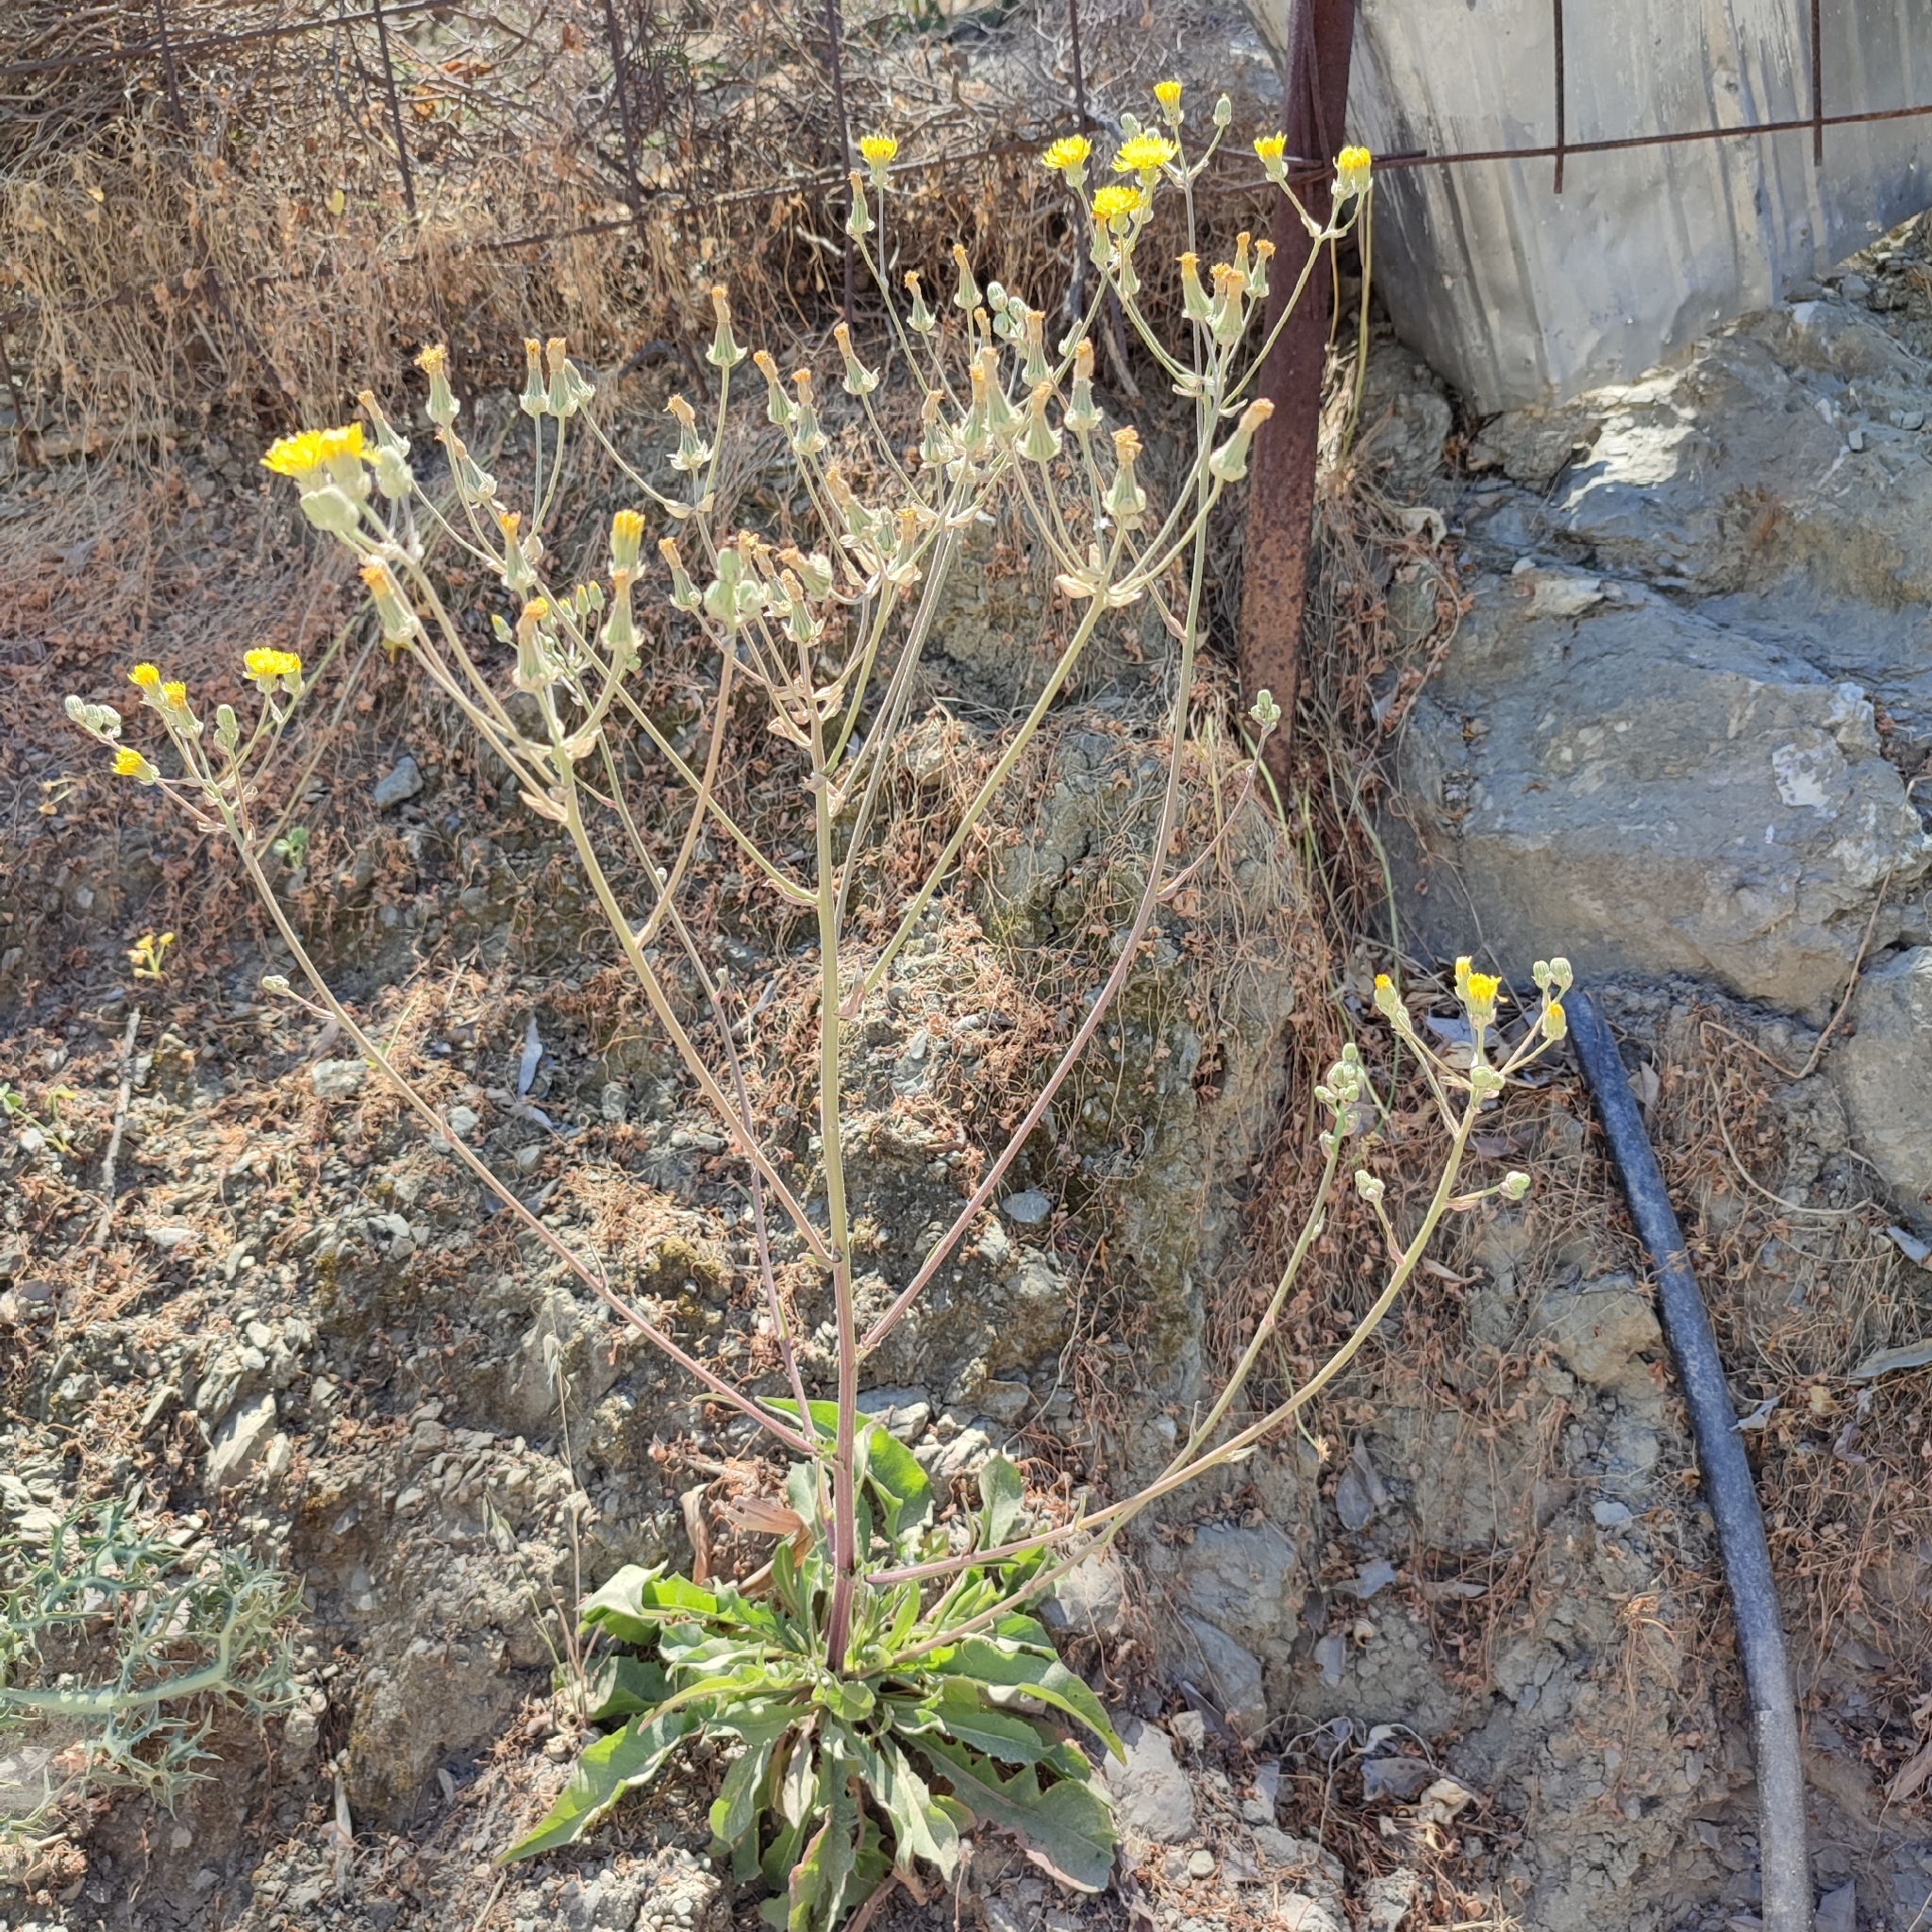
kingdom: Plantae
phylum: Tracheophyta
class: Magnoliopsida
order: Asterales
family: Asteraceae
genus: Crepis
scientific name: Crepis vesicaria
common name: Beaked hawksbeard
